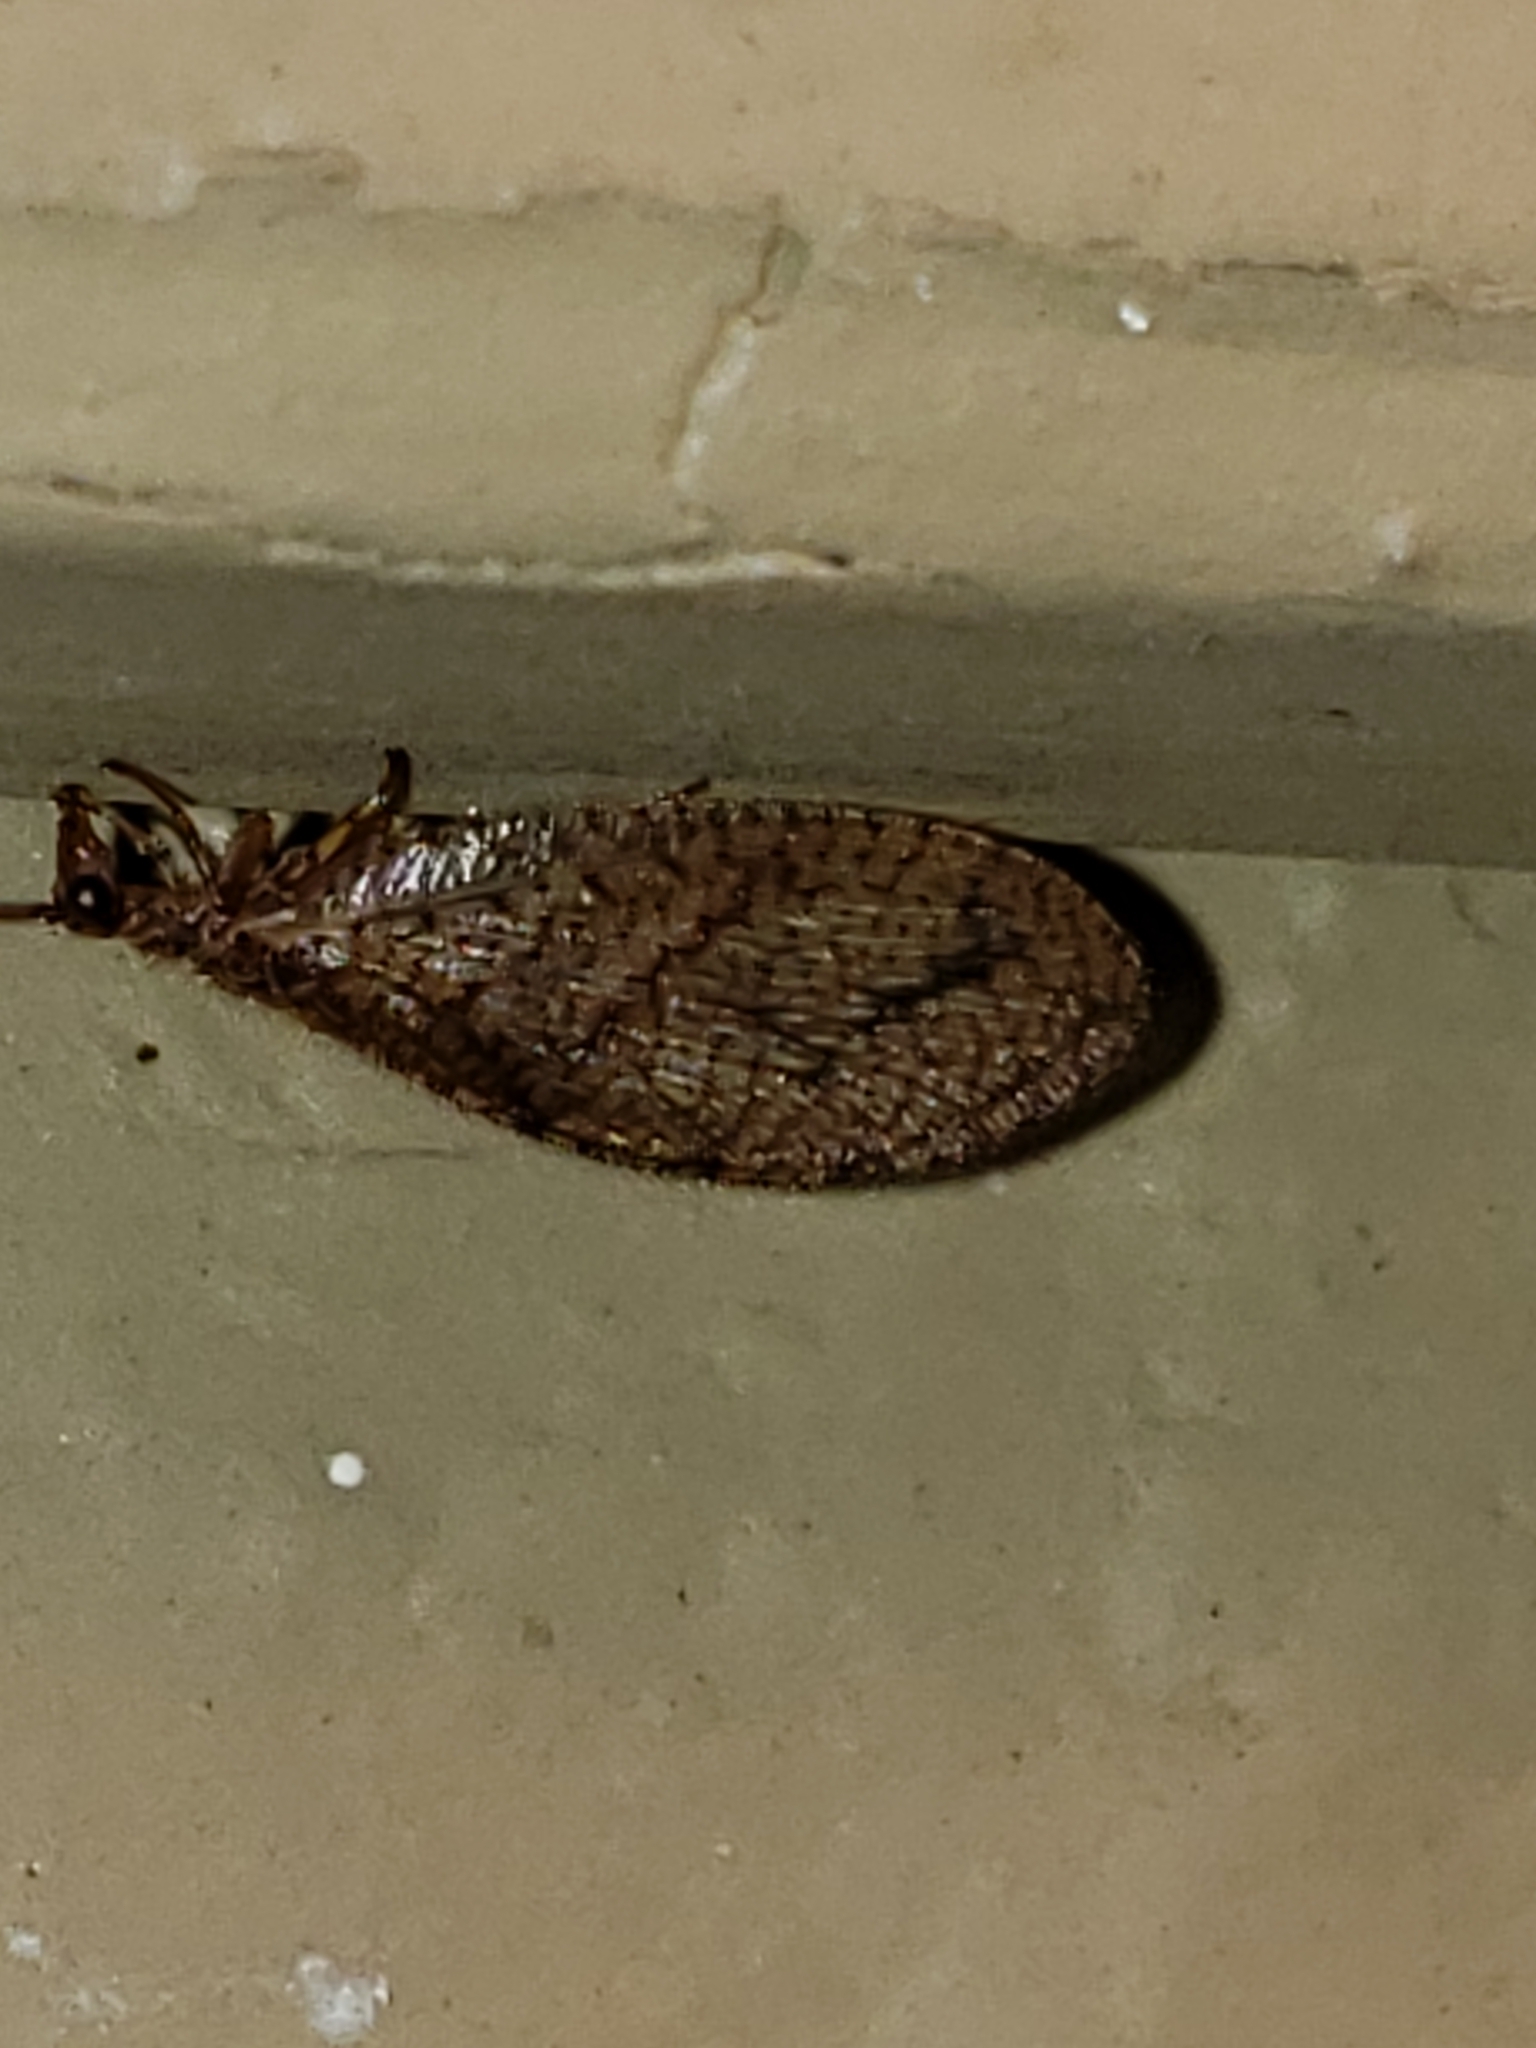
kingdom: Animalia
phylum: Arthropoda
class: Insecta
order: Neuroptera
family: Hemerobiidae
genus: Micromus
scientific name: Micromus posticus
